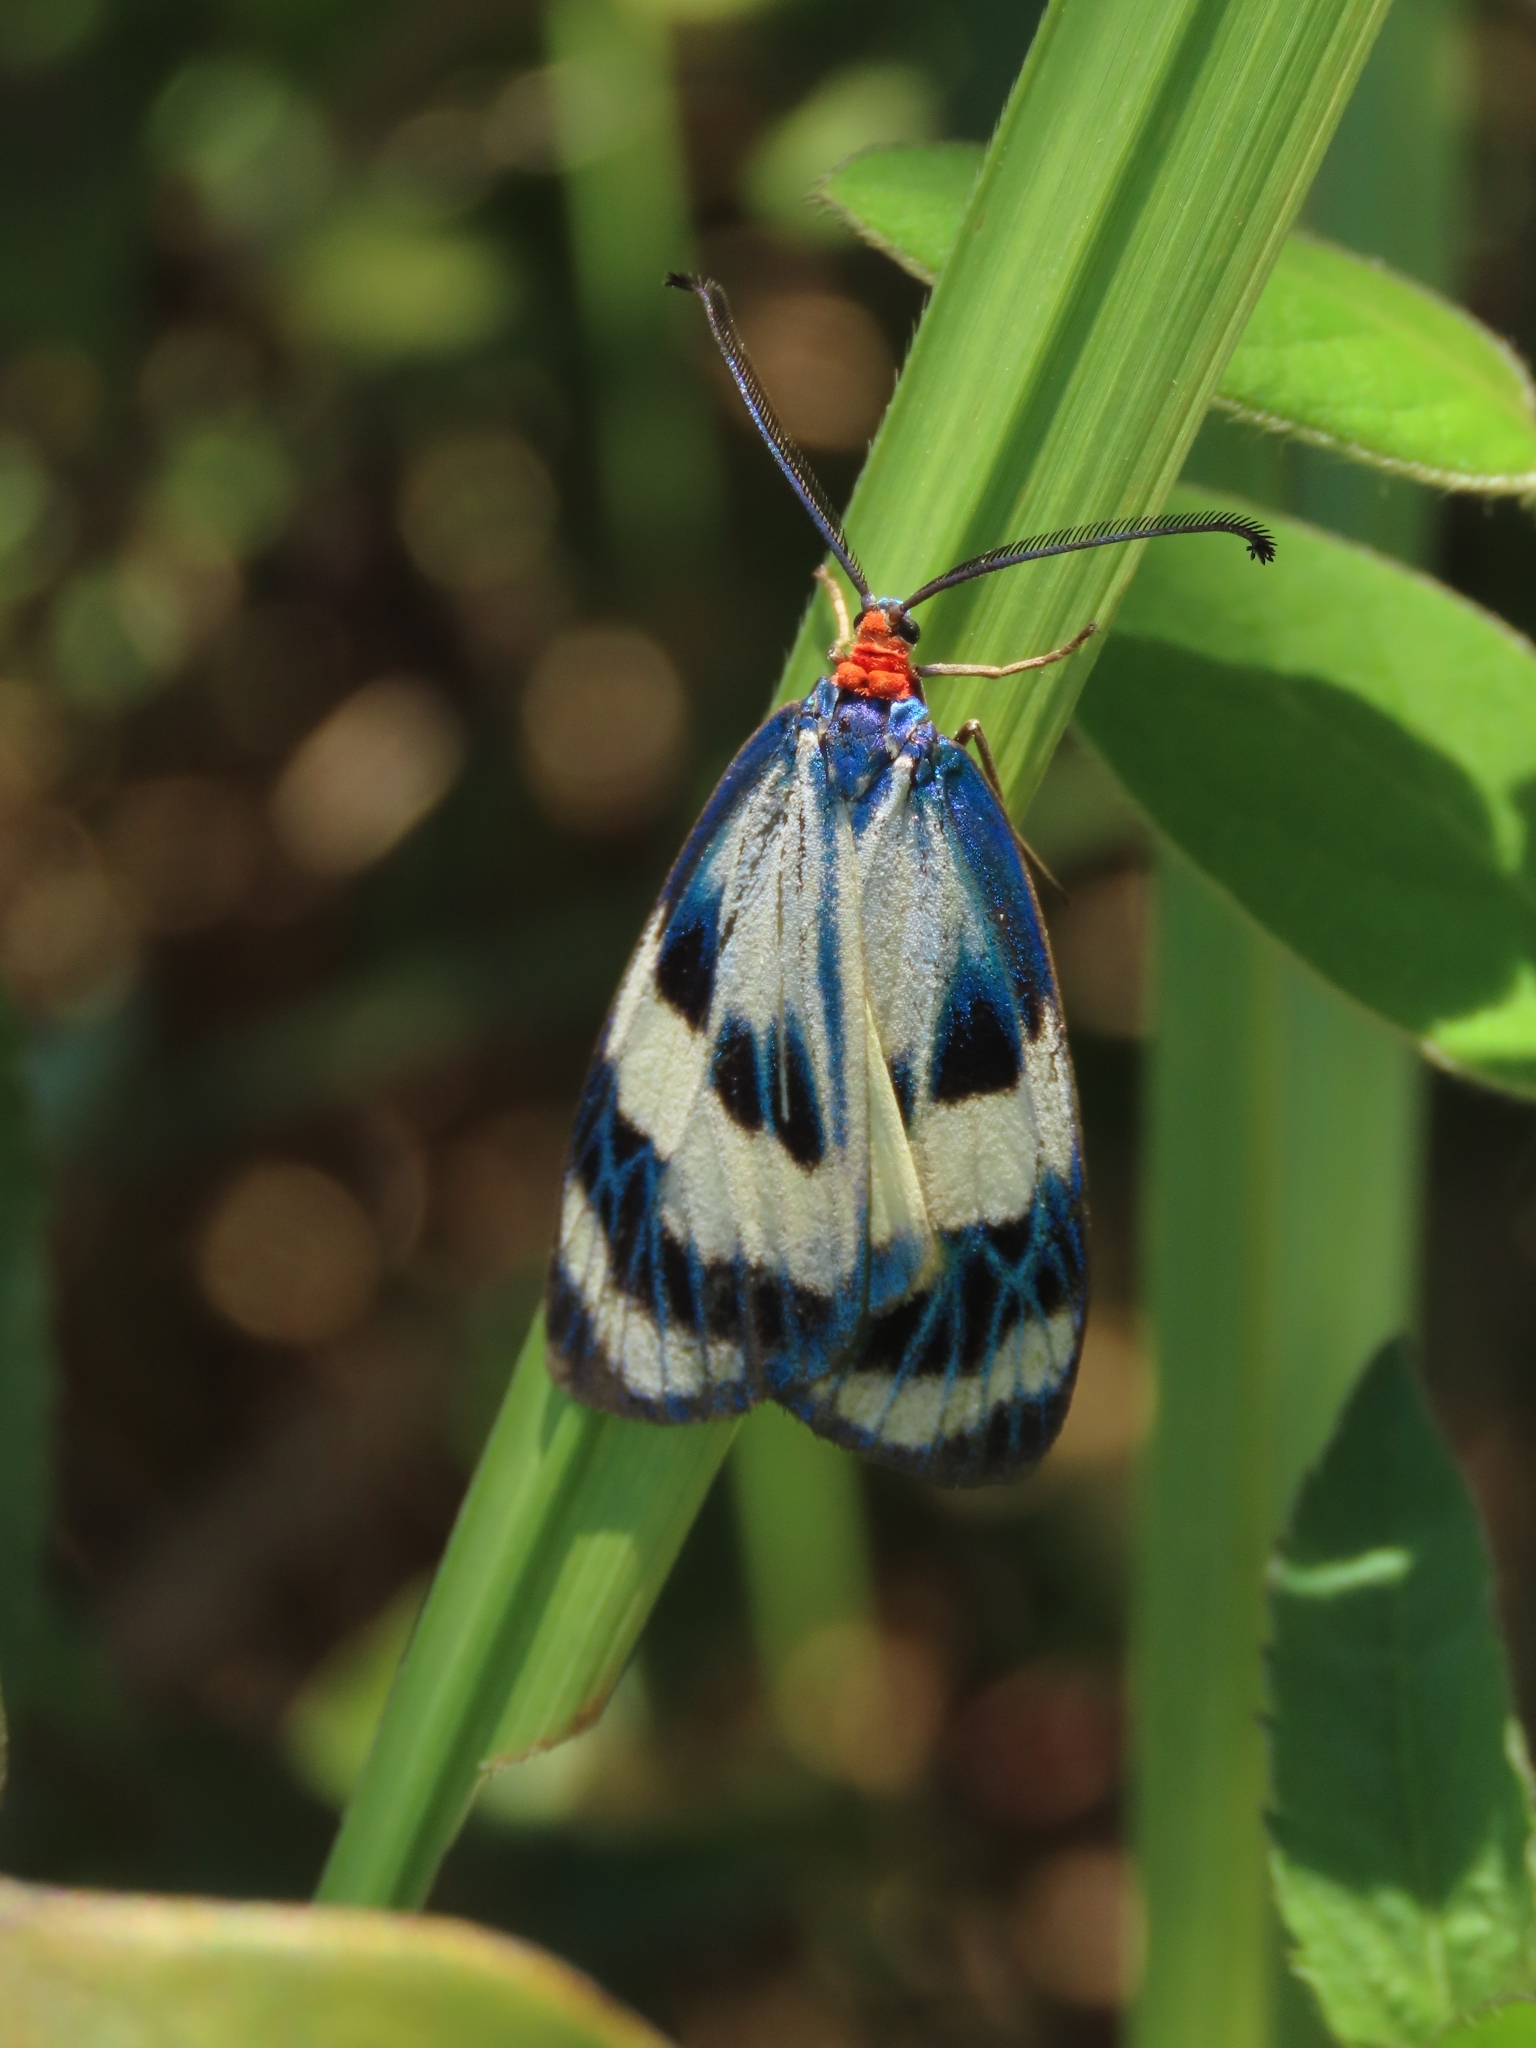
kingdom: Animalia
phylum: Arthropoda
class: Insecta
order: Lepidoptera
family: Zygaenidae
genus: Chalcosia
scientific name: Chalcosia pectinicornis
